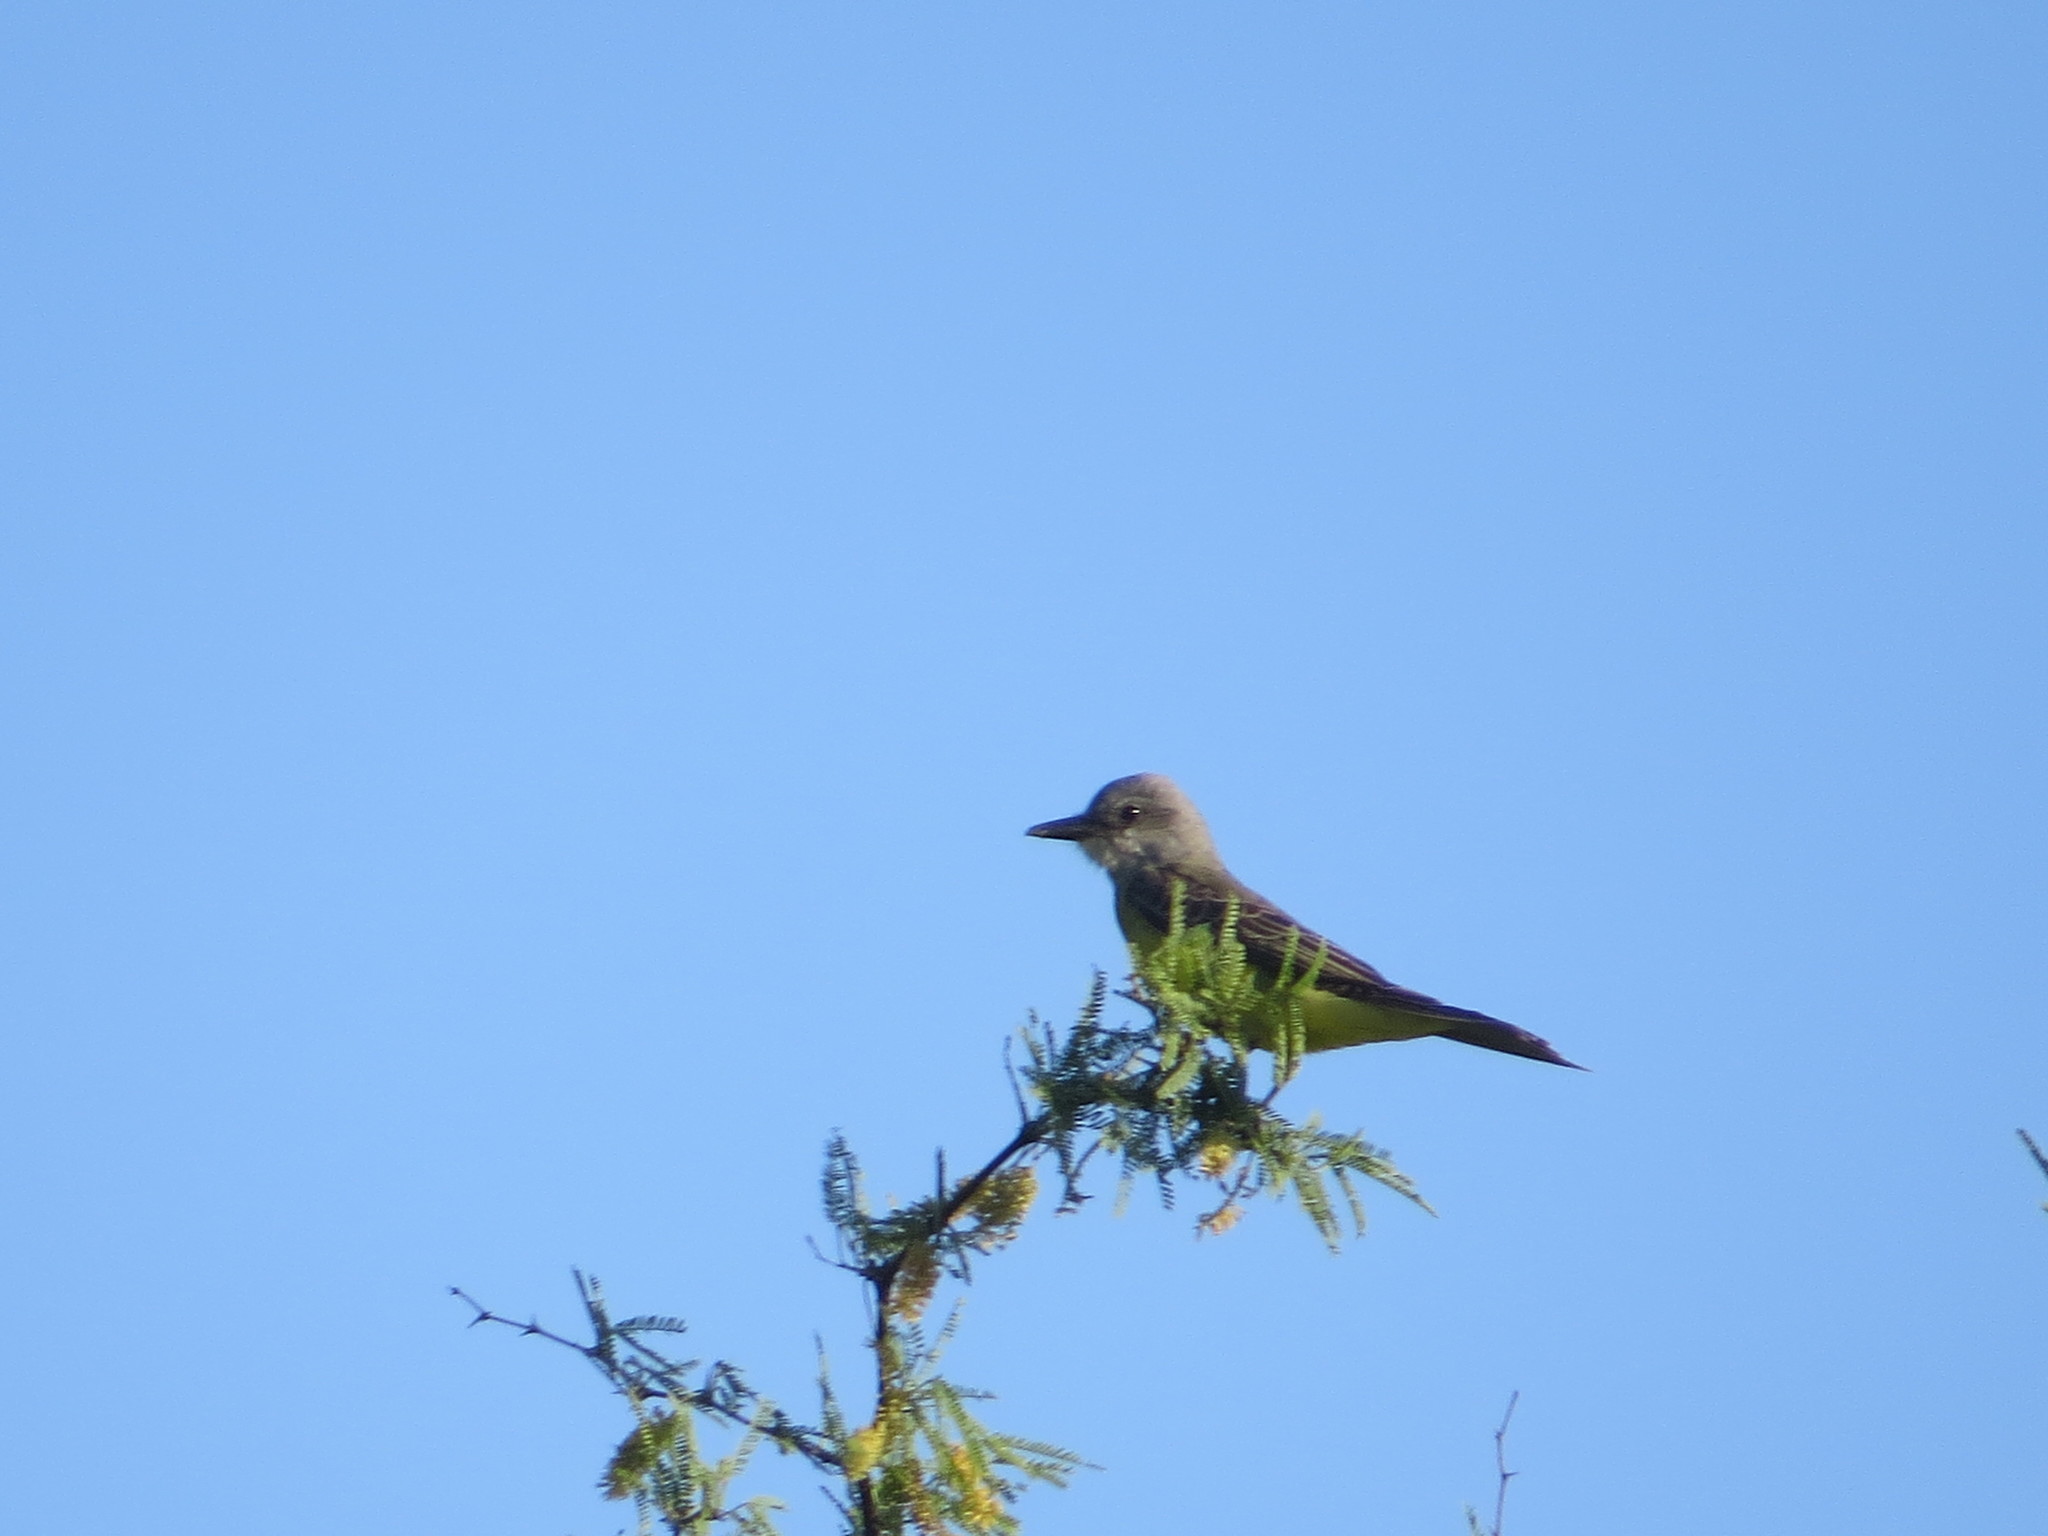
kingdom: Animalia
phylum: Chordata
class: Aves
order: Passeriformes
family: Tyrannidae
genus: Tyrannus
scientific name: Tyrannus melancholicus
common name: Tropical kingbird
